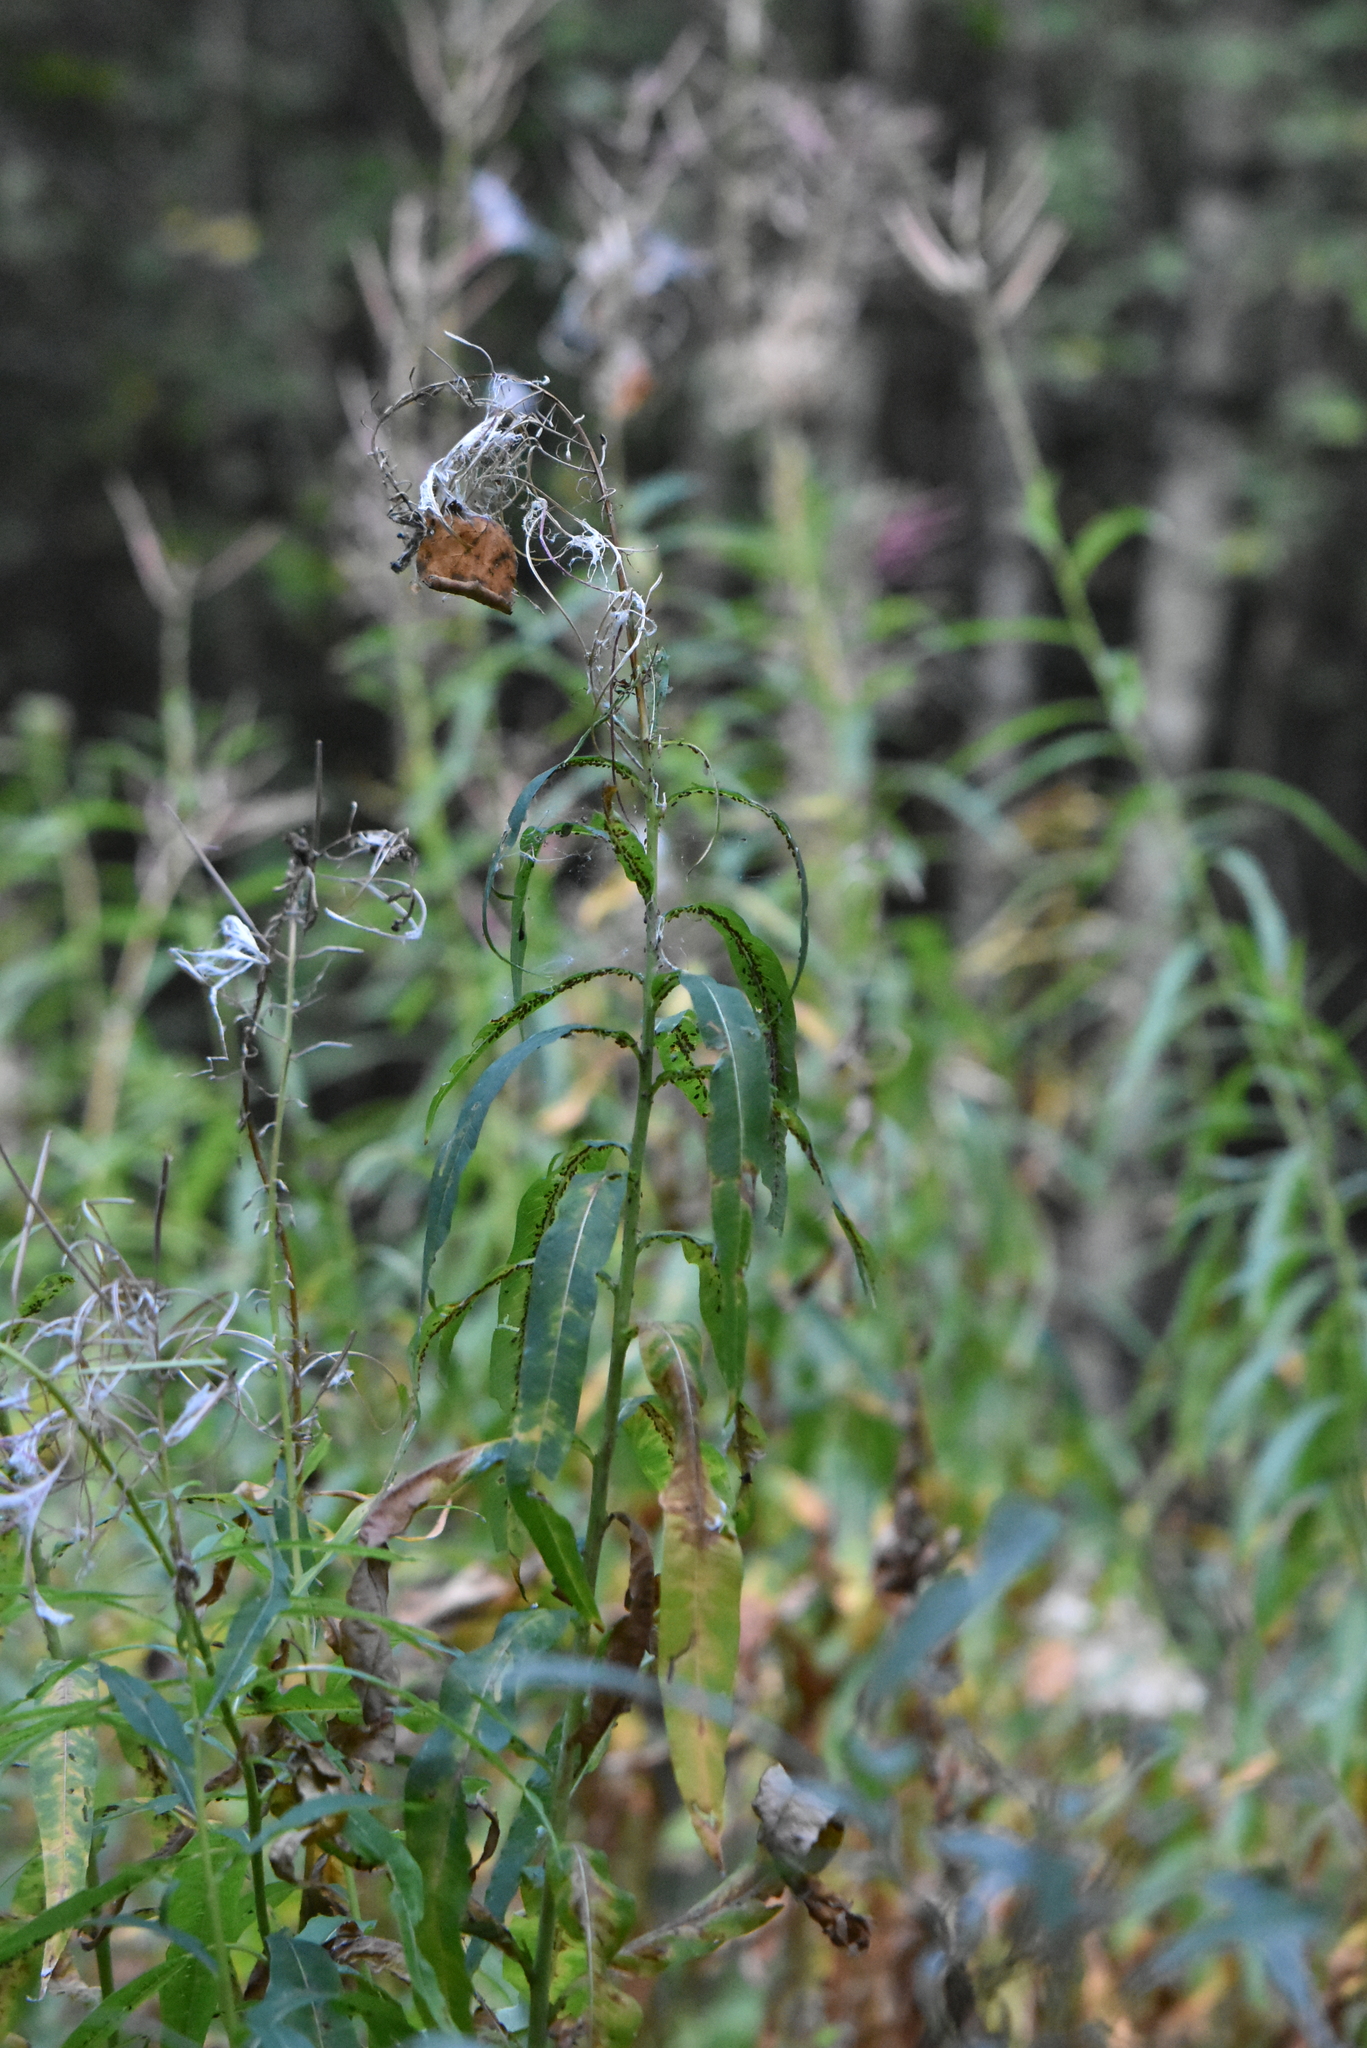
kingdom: Plantae
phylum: Tracheophyta
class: Magnoliopsida
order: Myrtales
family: Onagraceae
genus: Chamaenerion
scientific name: Chamaenerion angustifolium
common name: Fireweed
